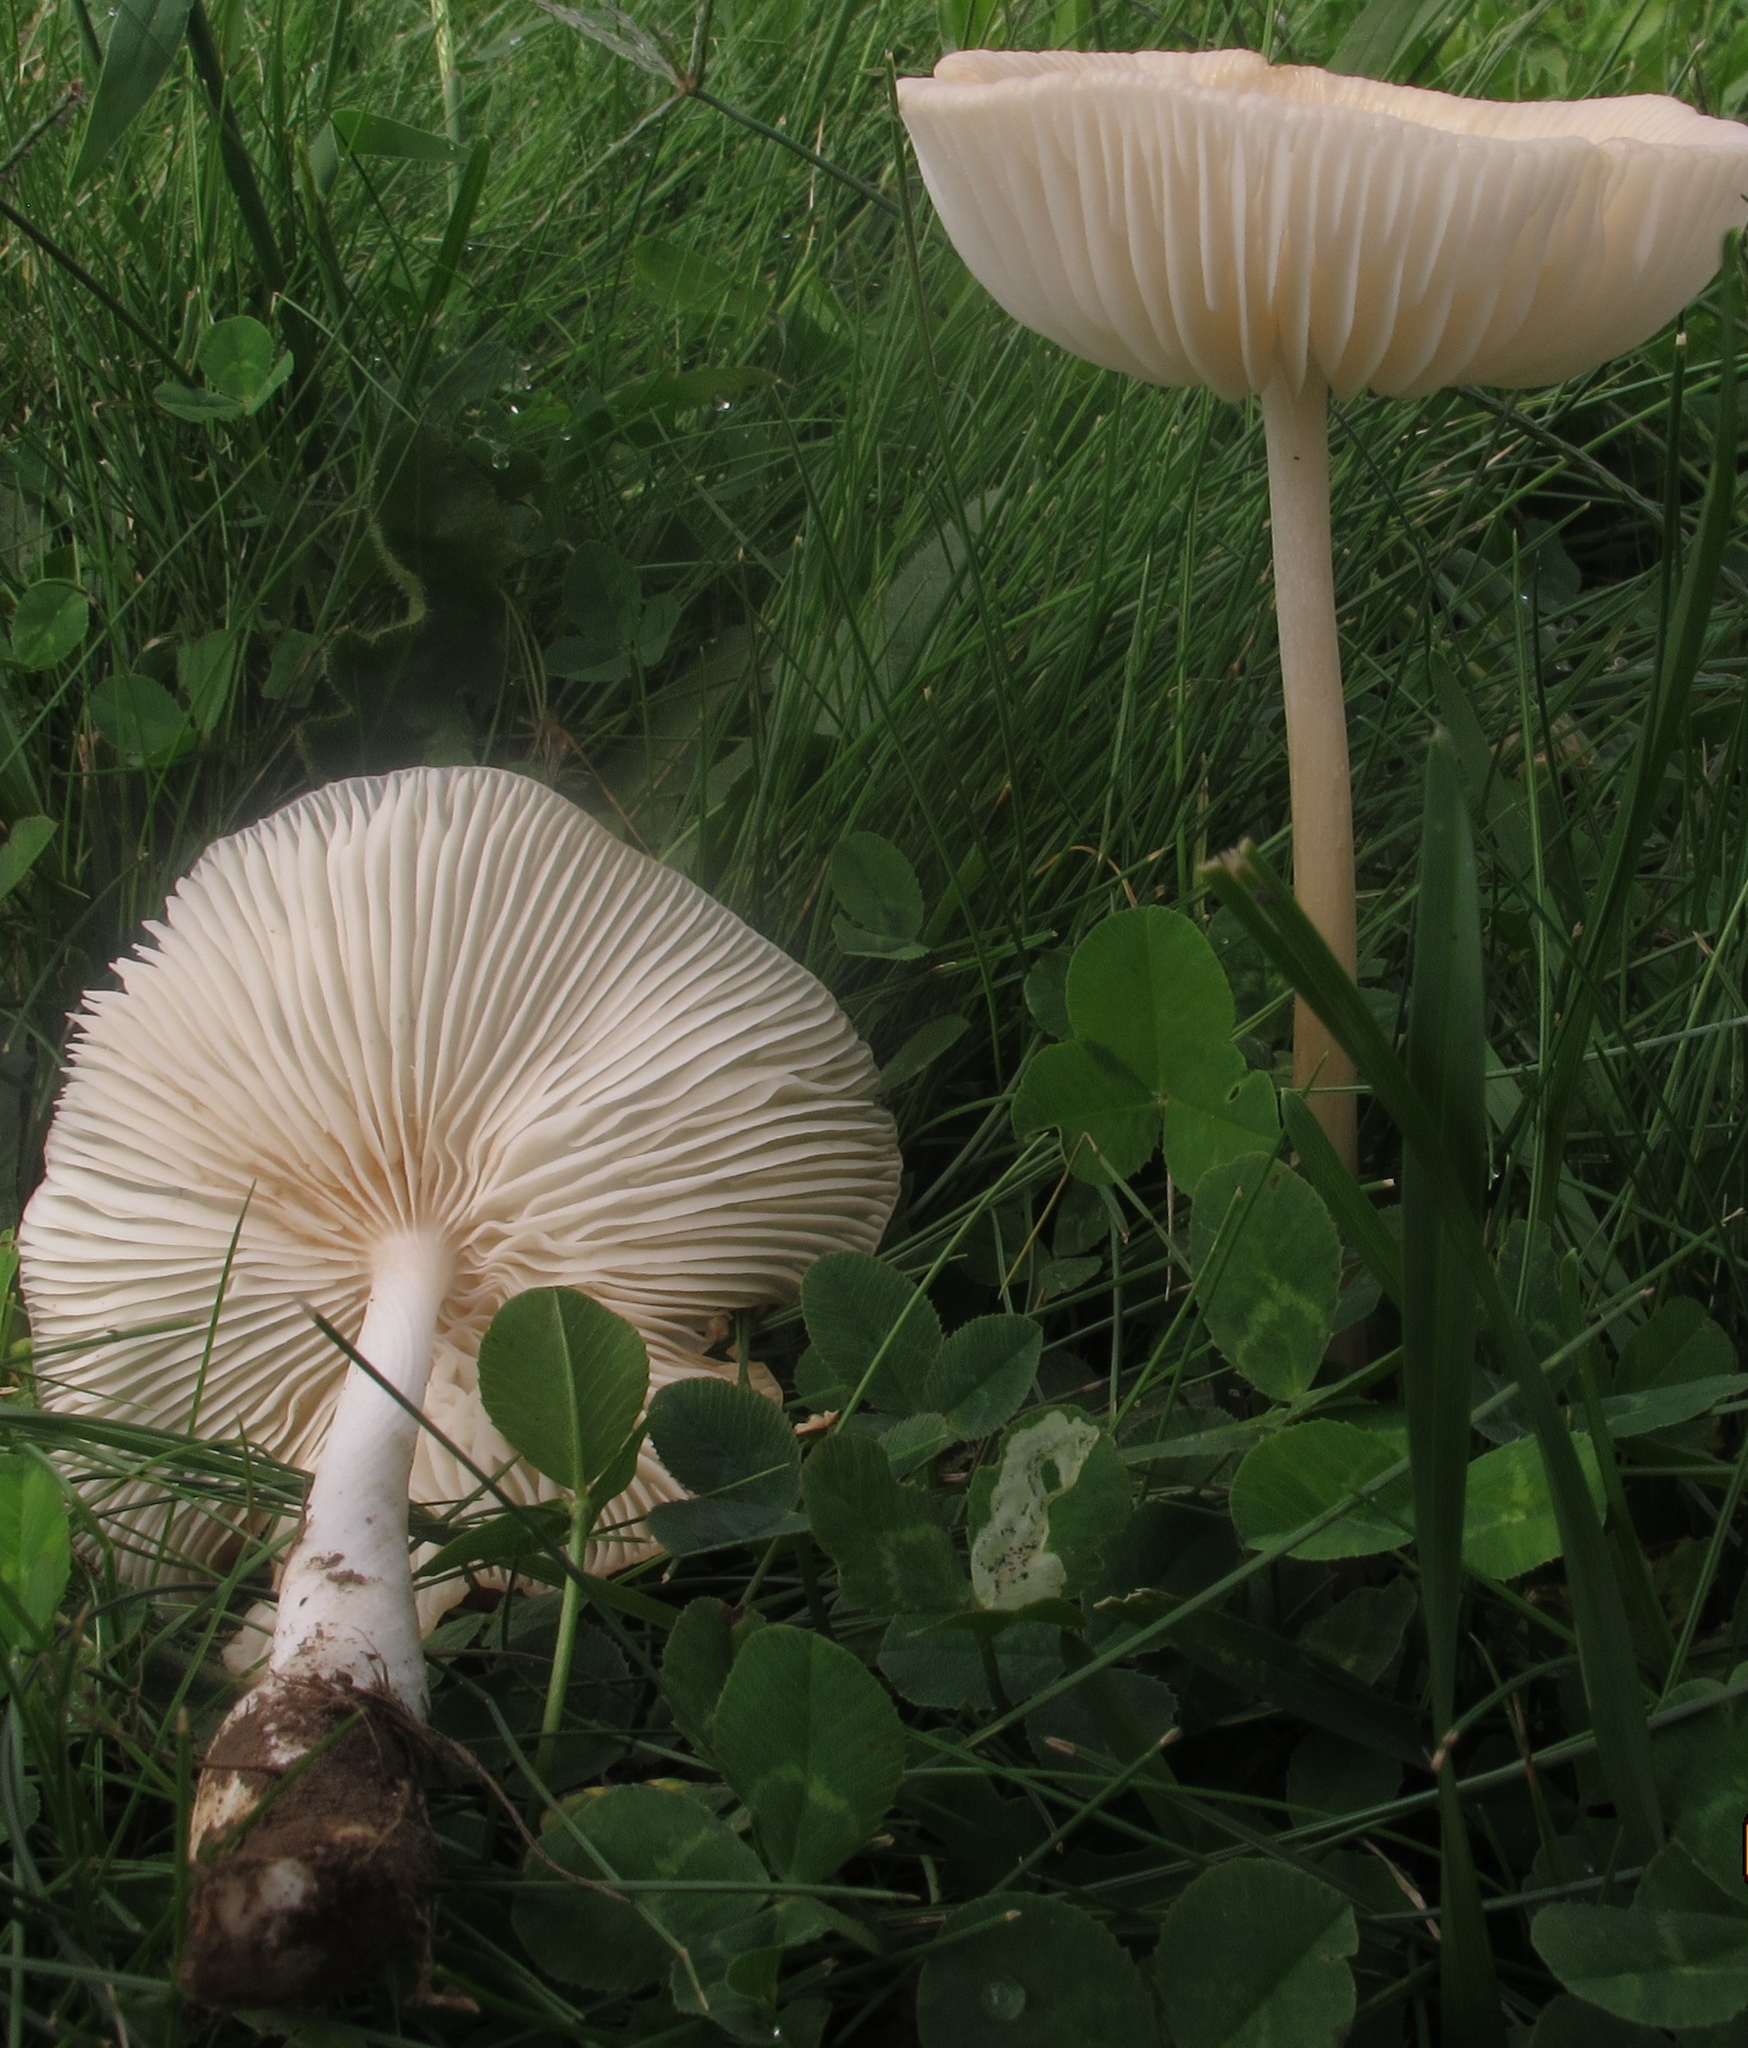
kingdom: Fungi
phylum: Basidiomycota
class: Agaricomycetes
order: Agaricales
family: Physalacriaceae
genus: Hymenopellis
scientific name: Hymenopellis megalospora
